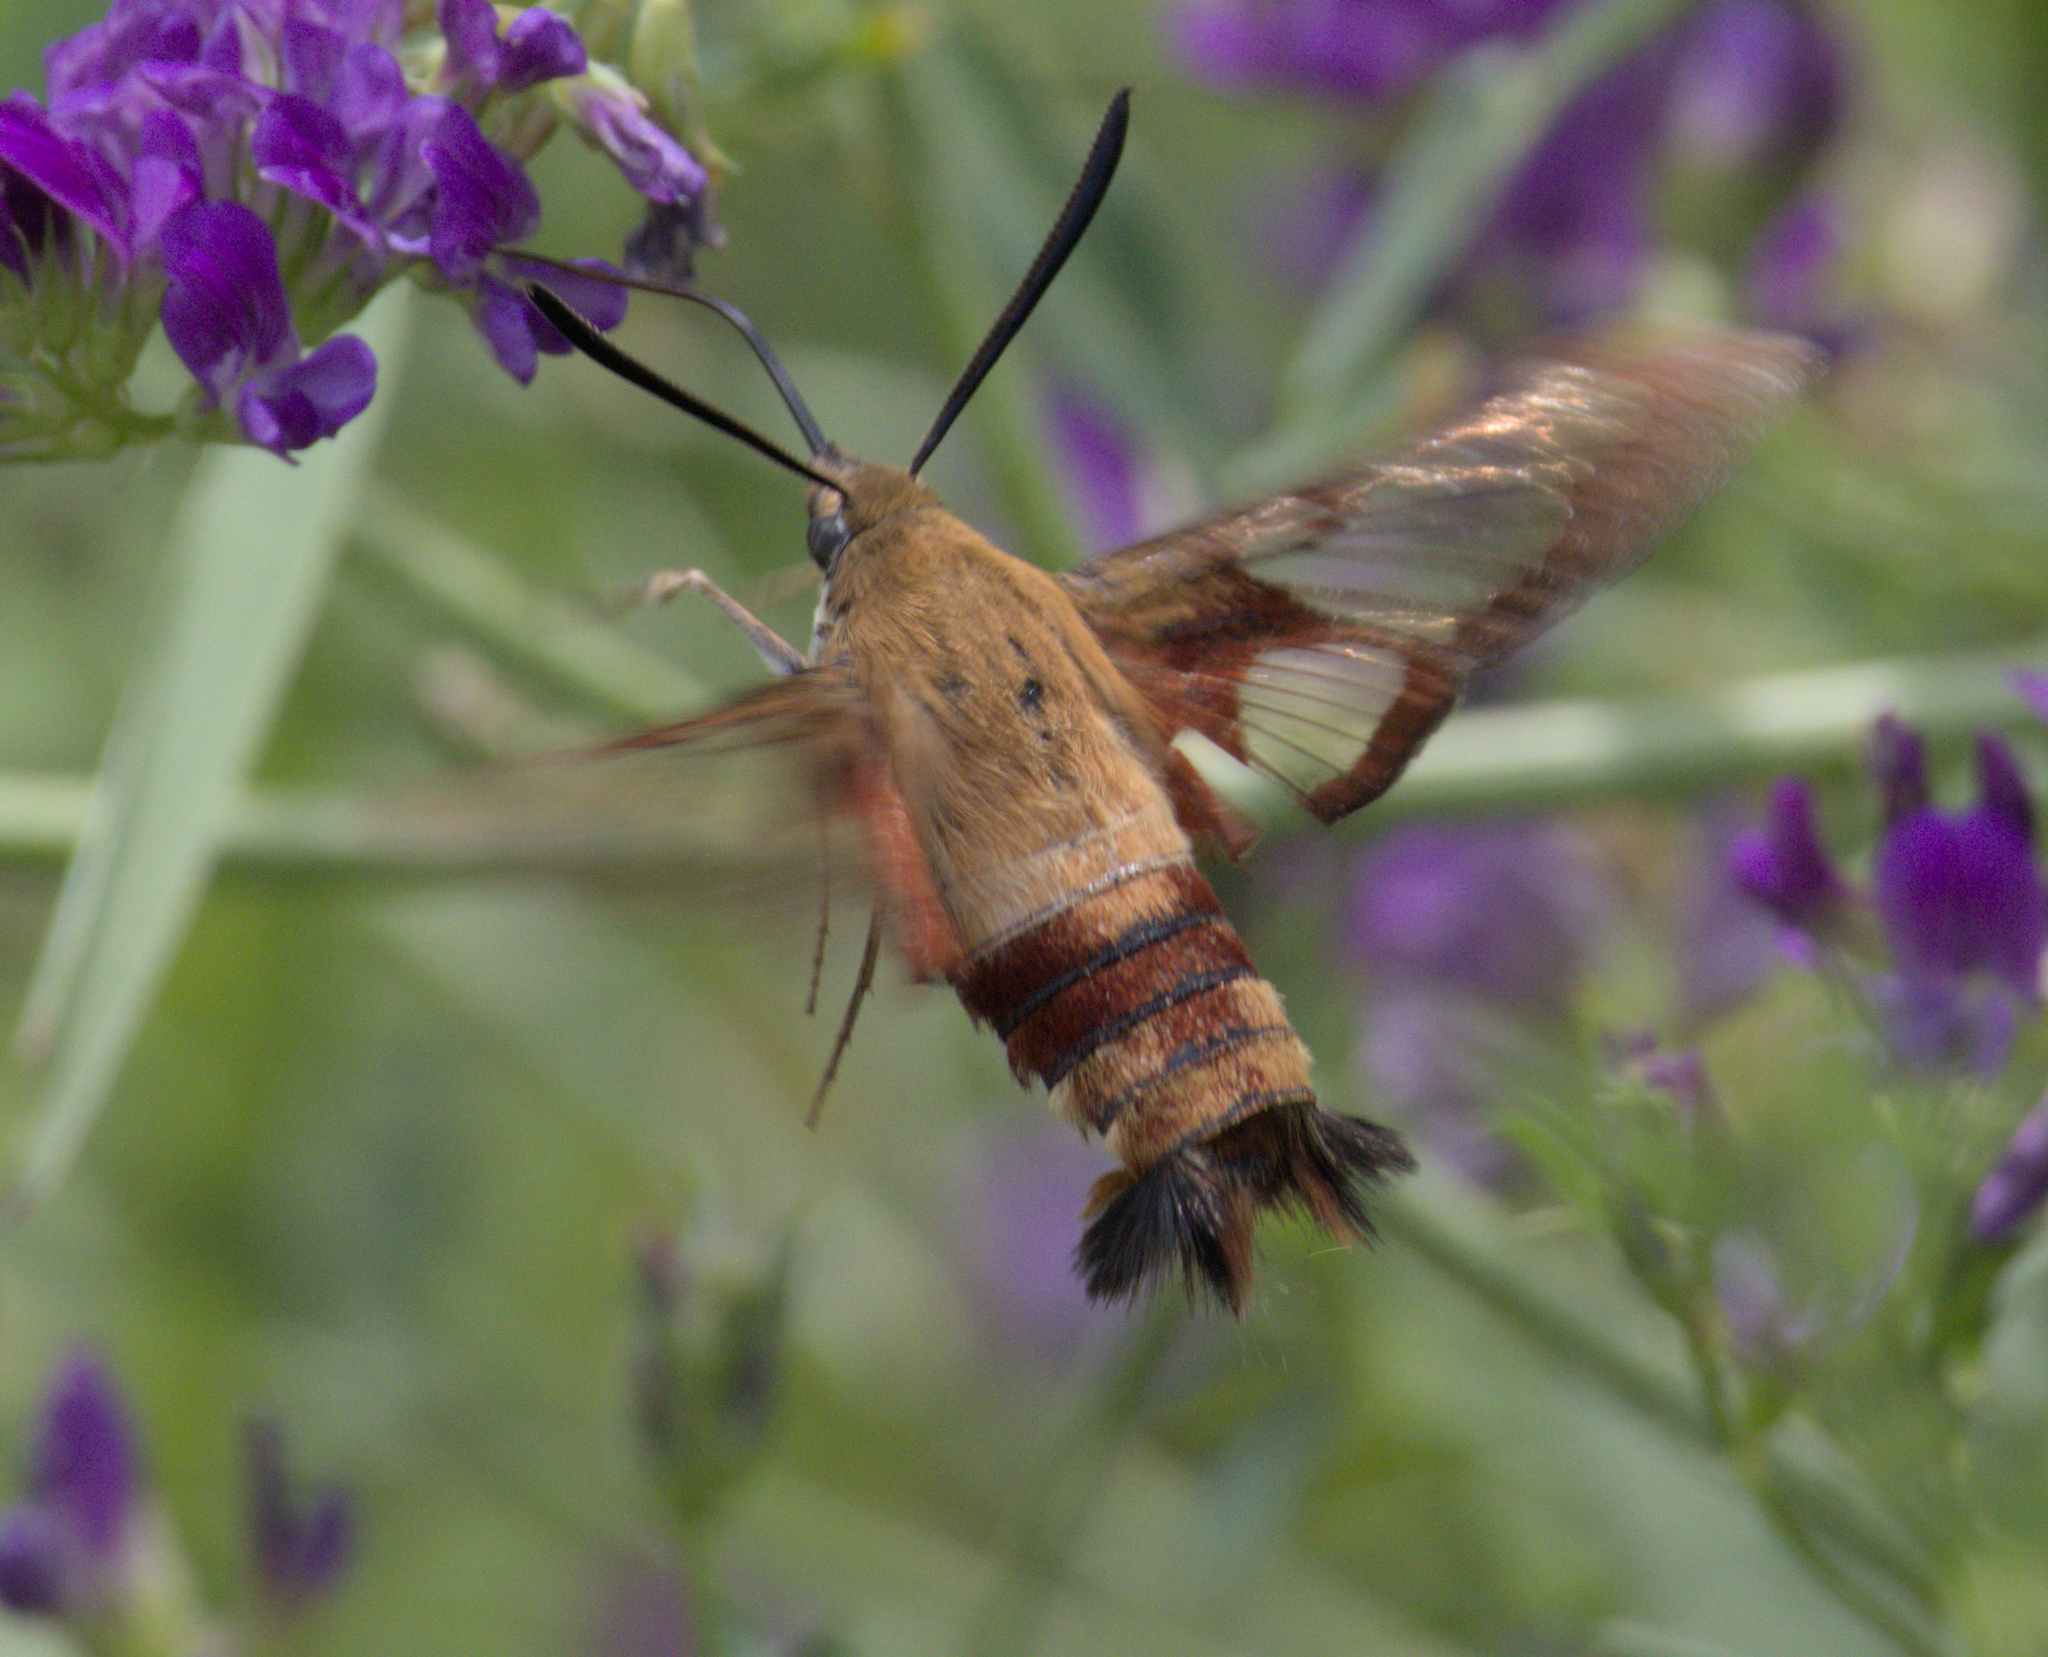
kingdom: Animalia
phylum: Arthropoda
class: Insecta
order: Lepidoptera
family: Sphingidae
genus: Hemaris
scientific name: Hemaris thysbe
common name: Common clear-wing
